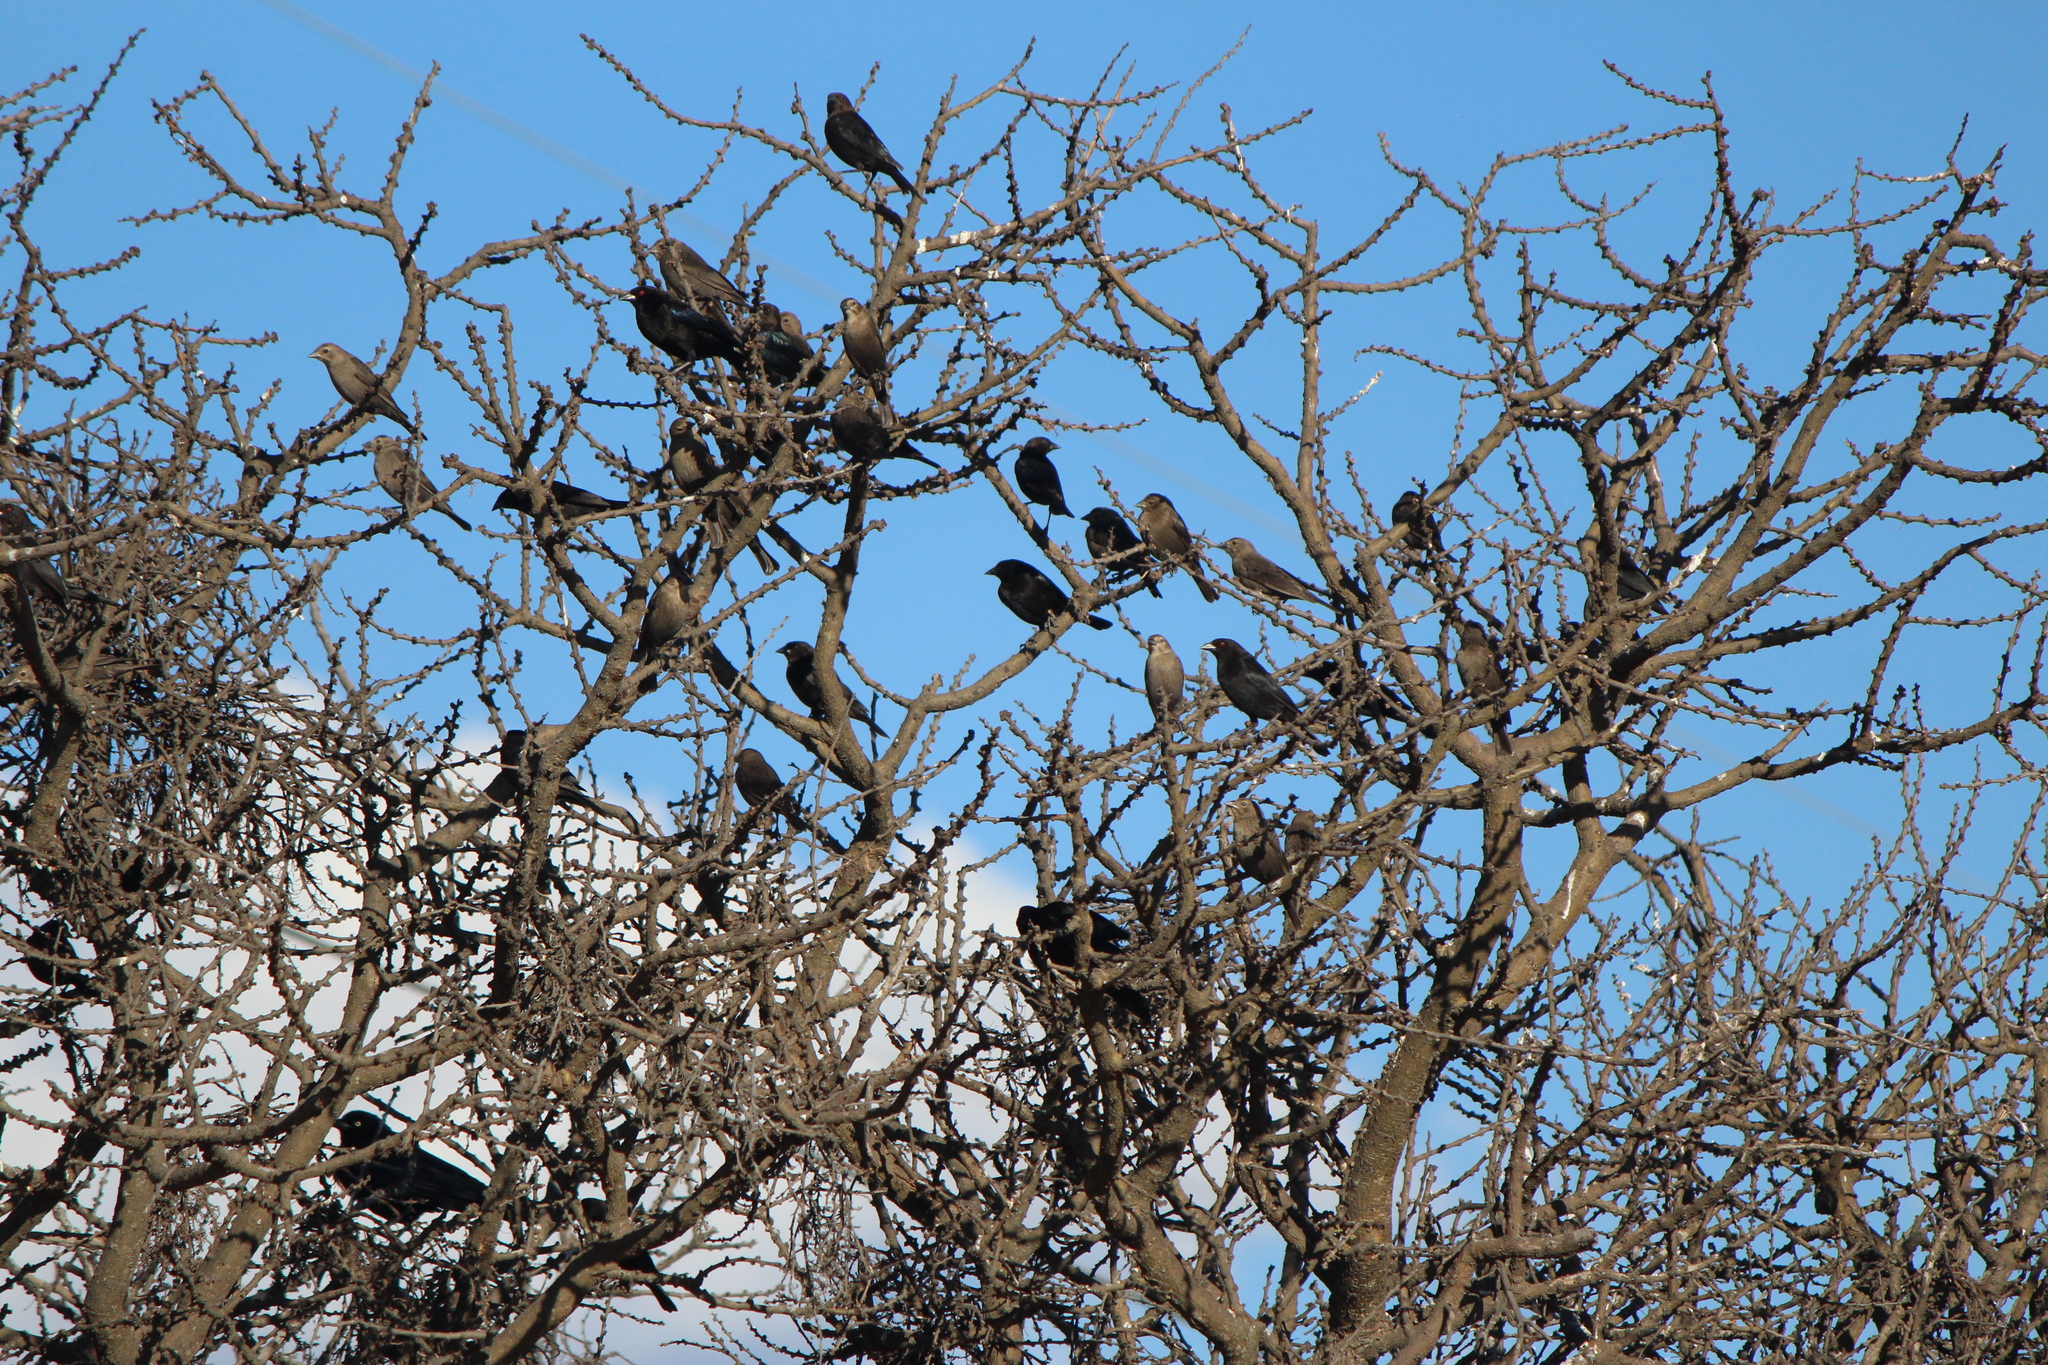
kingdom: Animalia
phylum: Chordata
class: Aves
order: Passeriformes
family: Icteridae
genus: Molothrus
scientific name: Molothrus aeneus
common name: Bronzed cowbird
